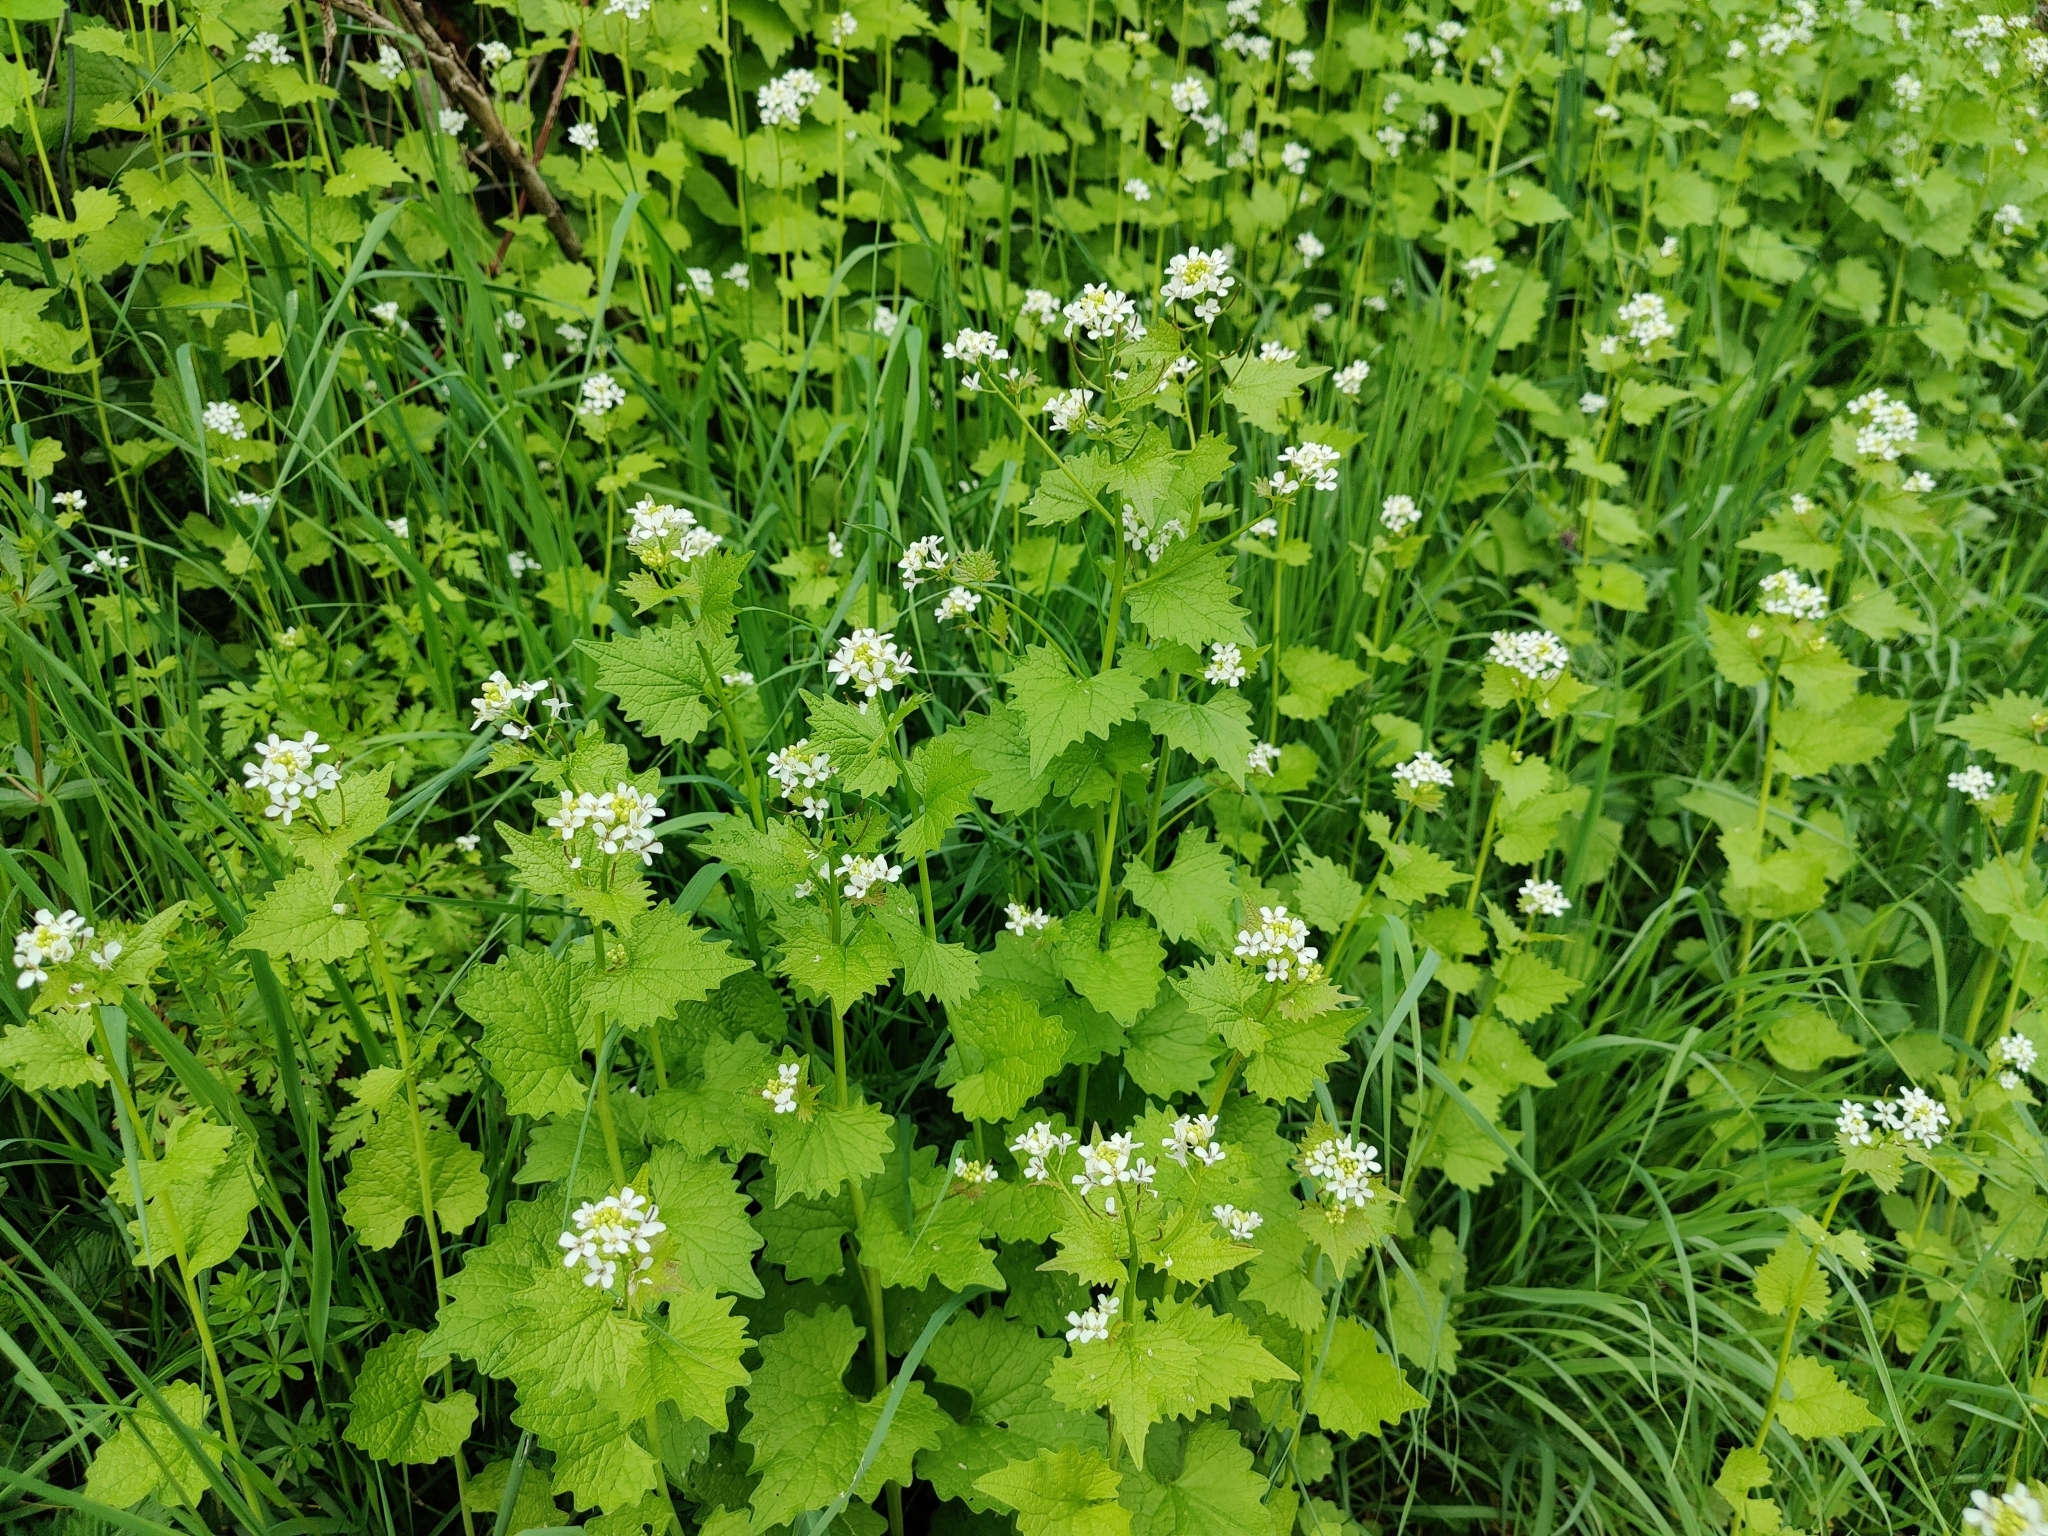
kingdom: Plantae
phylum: Tracheophyta
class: Magnoliopsida
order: Brassicales
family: Brassicaceae
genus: Alliaria
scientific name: Alliaria petiolata
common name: Garlic mustard
